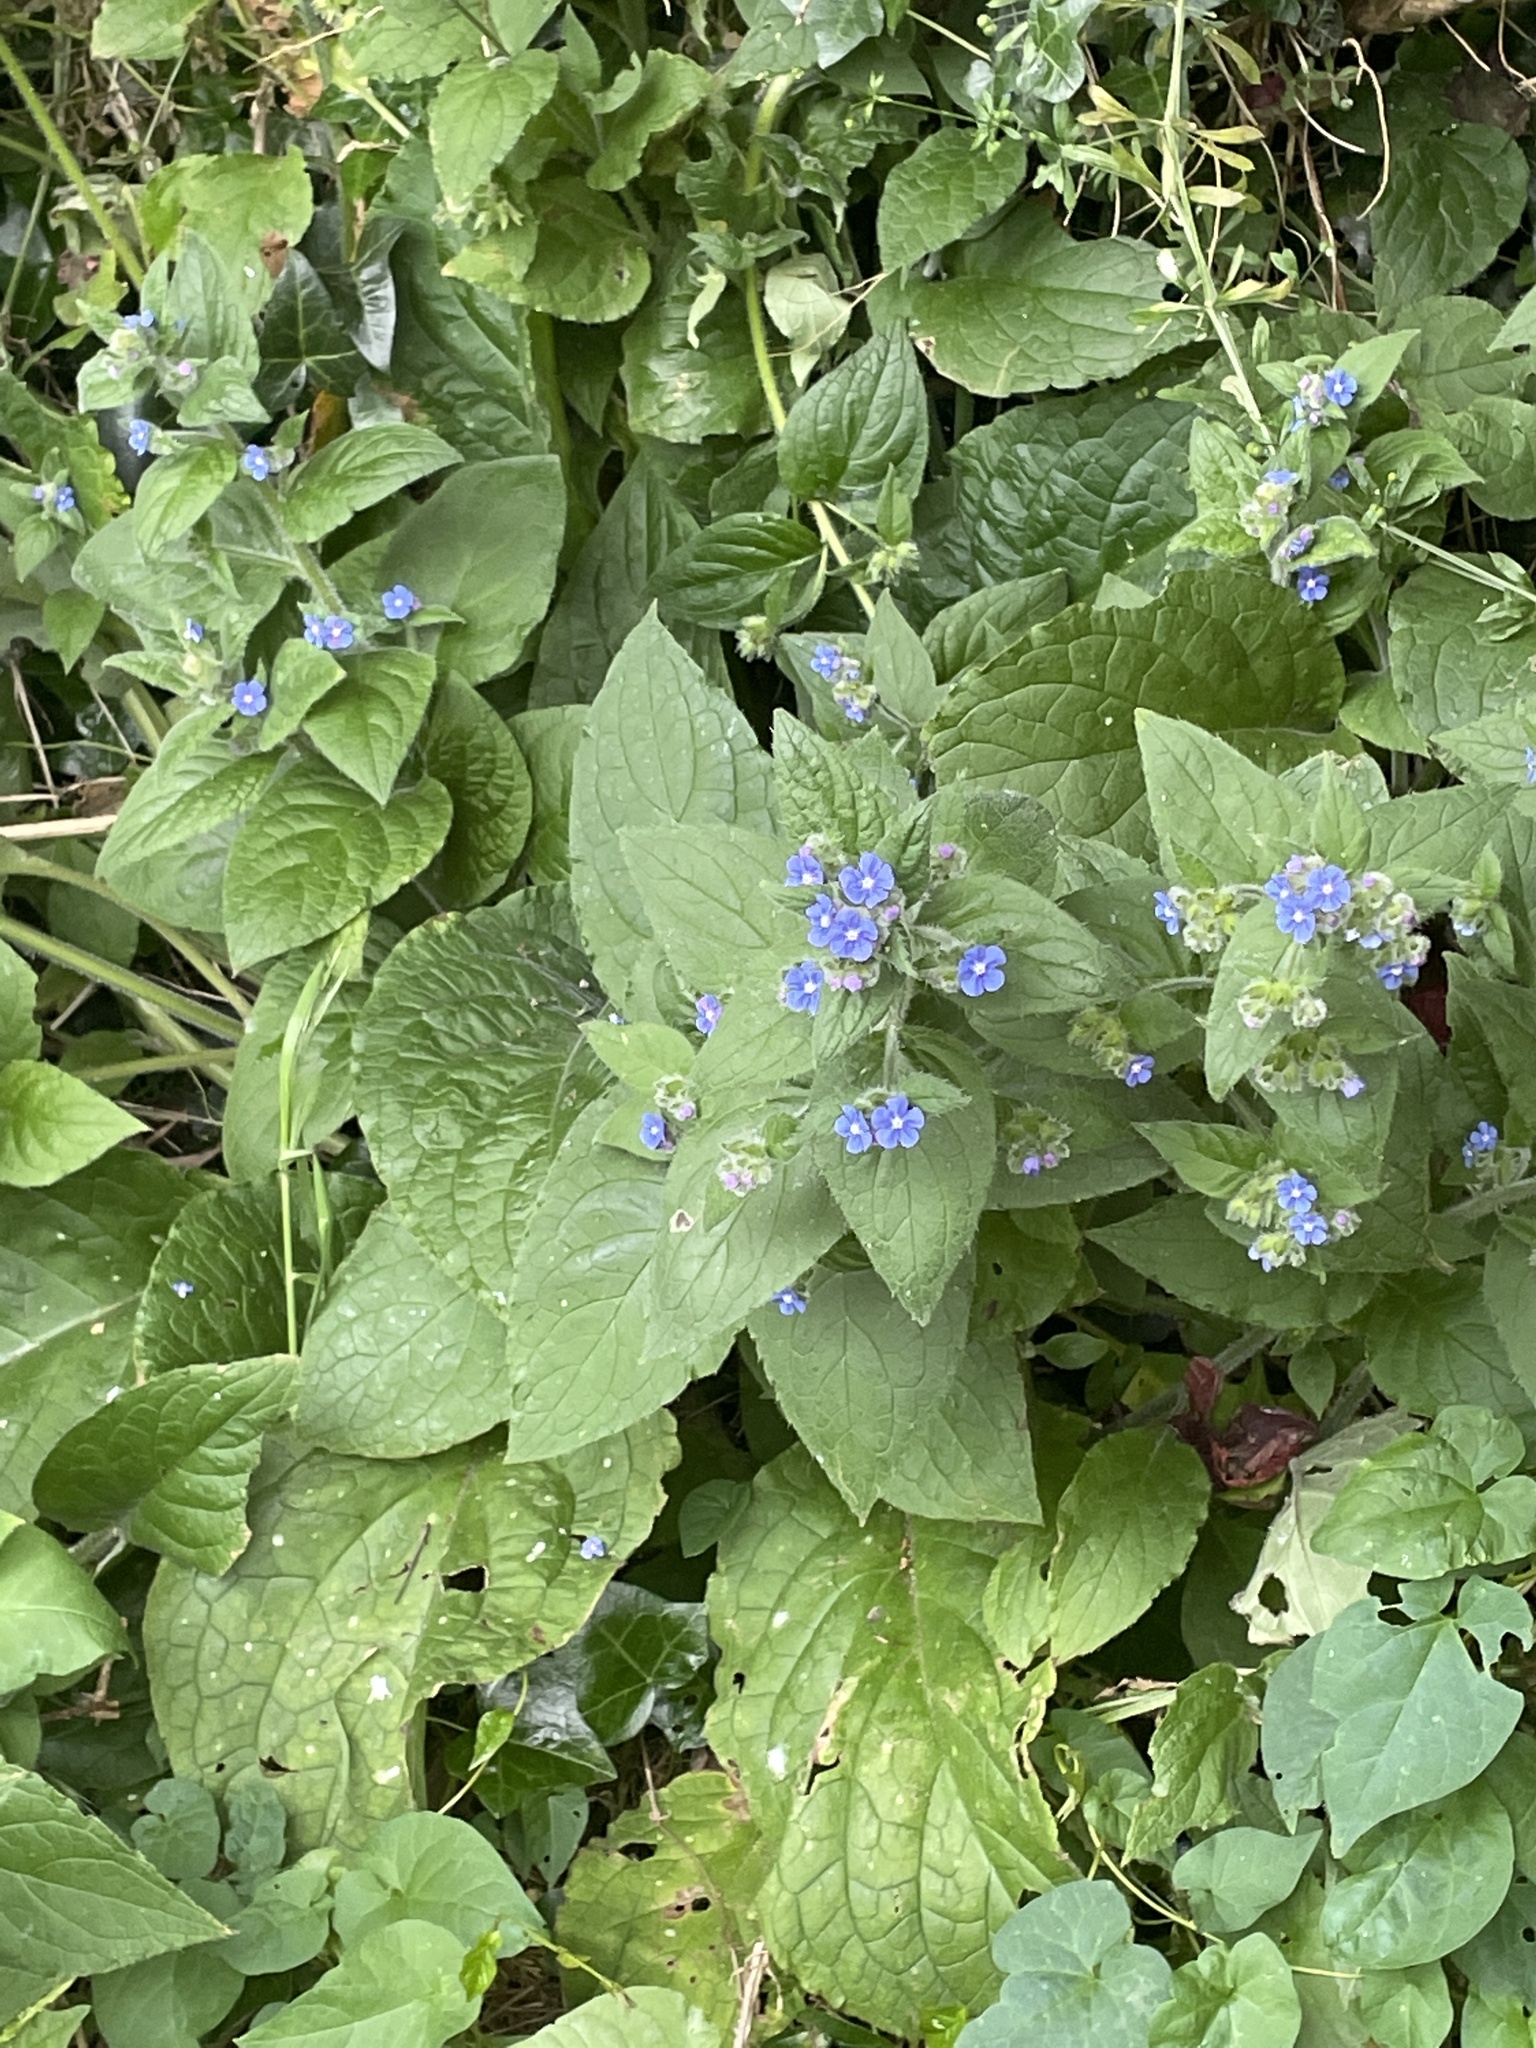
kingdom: Plantae
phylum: Tracheophyta
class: Magnoliopsida
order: Boraginales
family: Boraginaceae
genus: Pentaglottis
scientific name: Pentaglottis sempervirens
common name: Green alkanet
